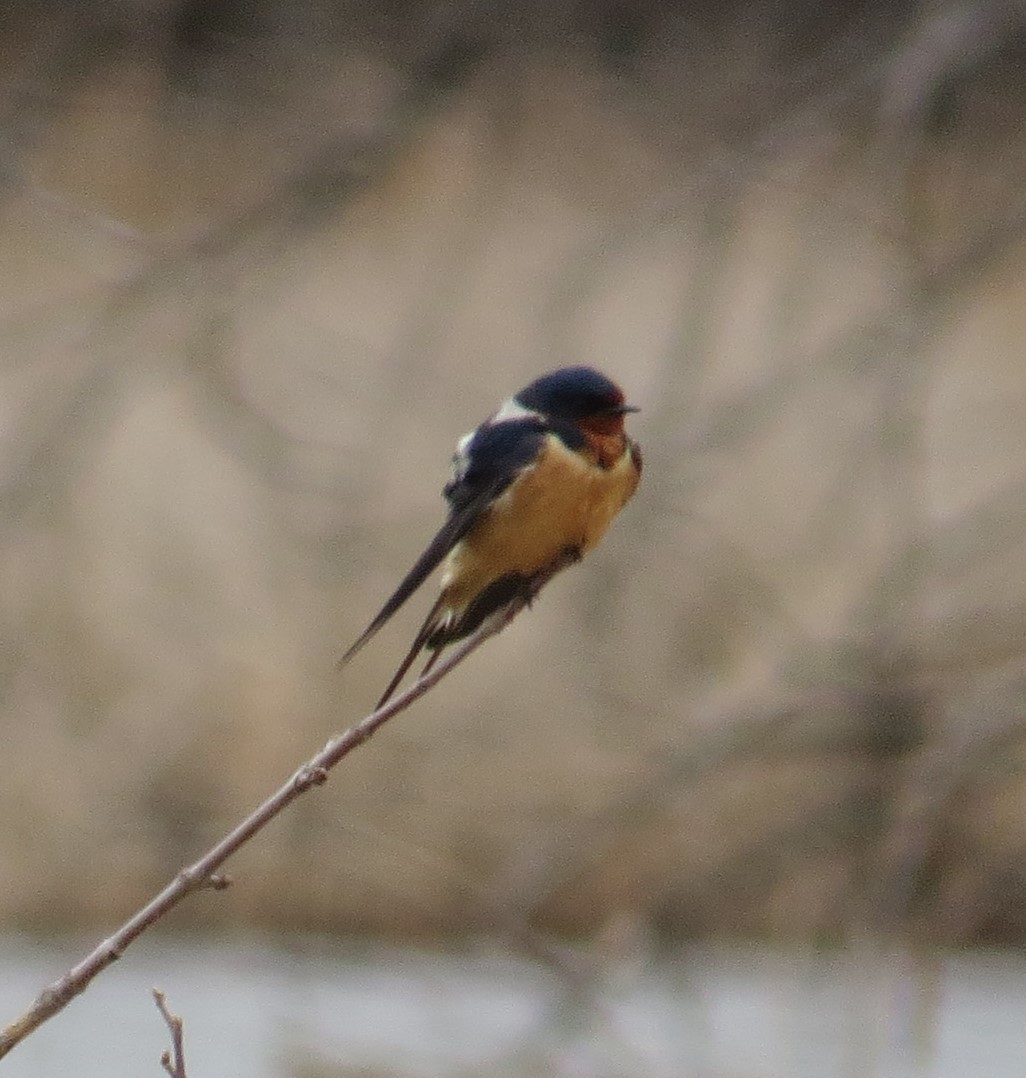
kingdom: Animalia
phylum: Chordata
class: Aves
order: Passeriformes
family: Hirundinidae
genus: Hirundo
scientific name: Hirundo rustica
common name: Barn swallow
